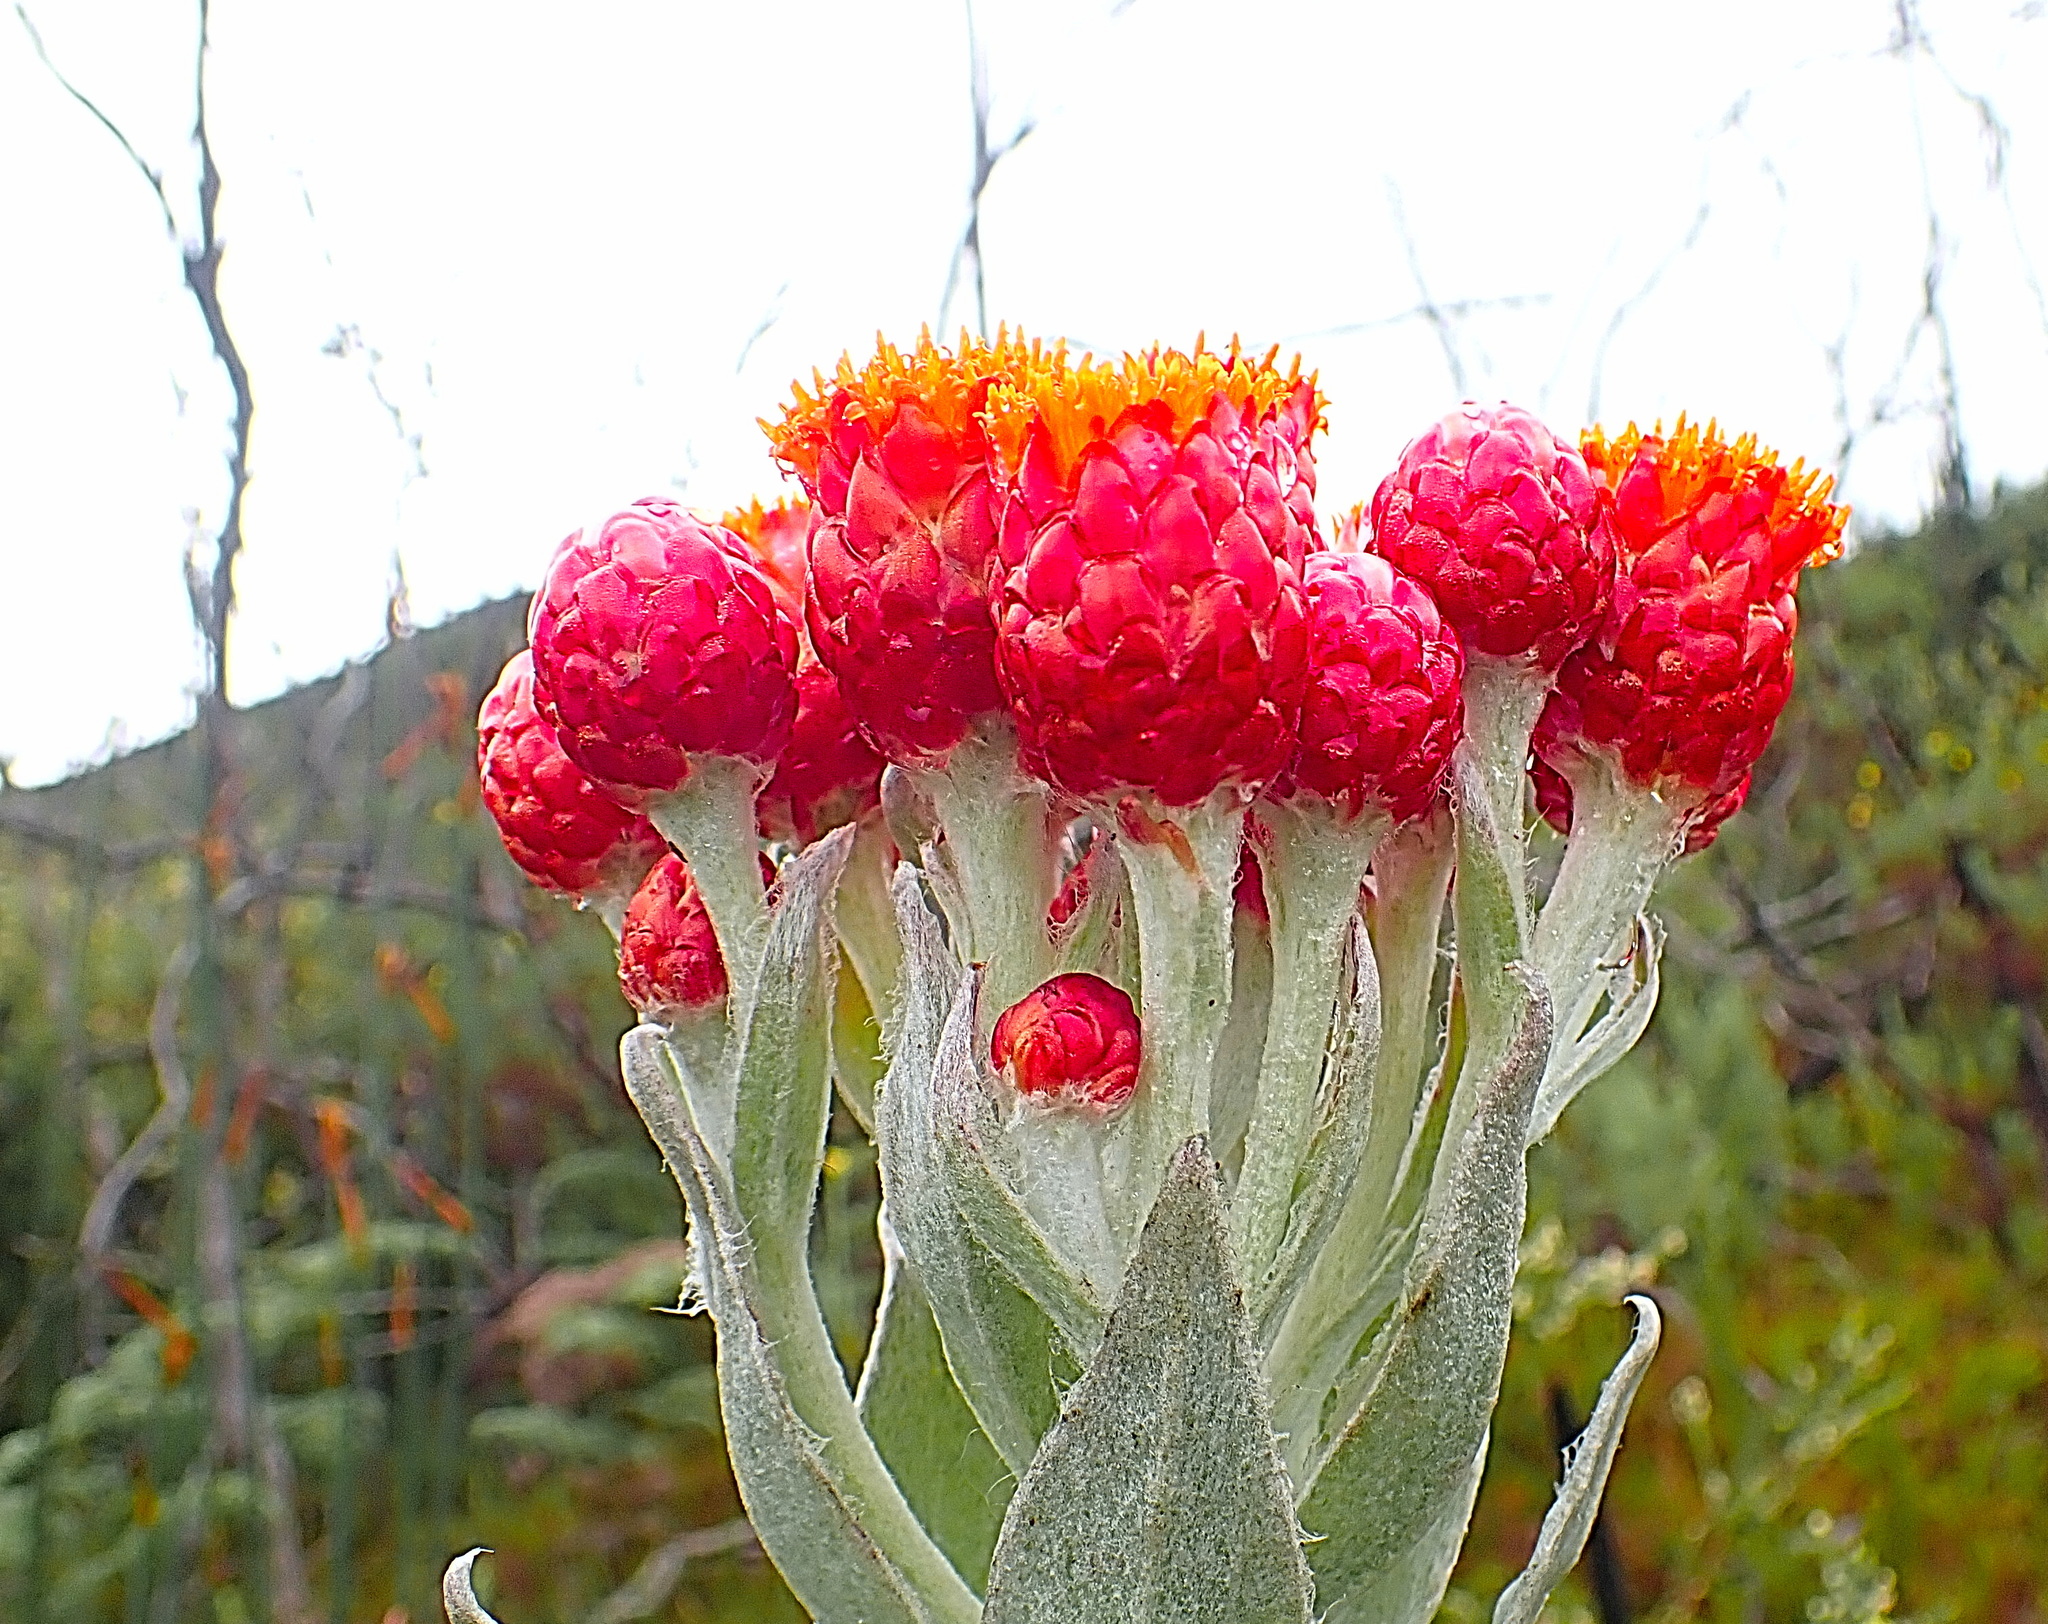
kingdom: Plantae
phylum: Tracheophyta
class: Magnoliopsida
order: Asterales
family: Asteraceae
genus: Syncarpha
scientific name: Syncarpha eximia
